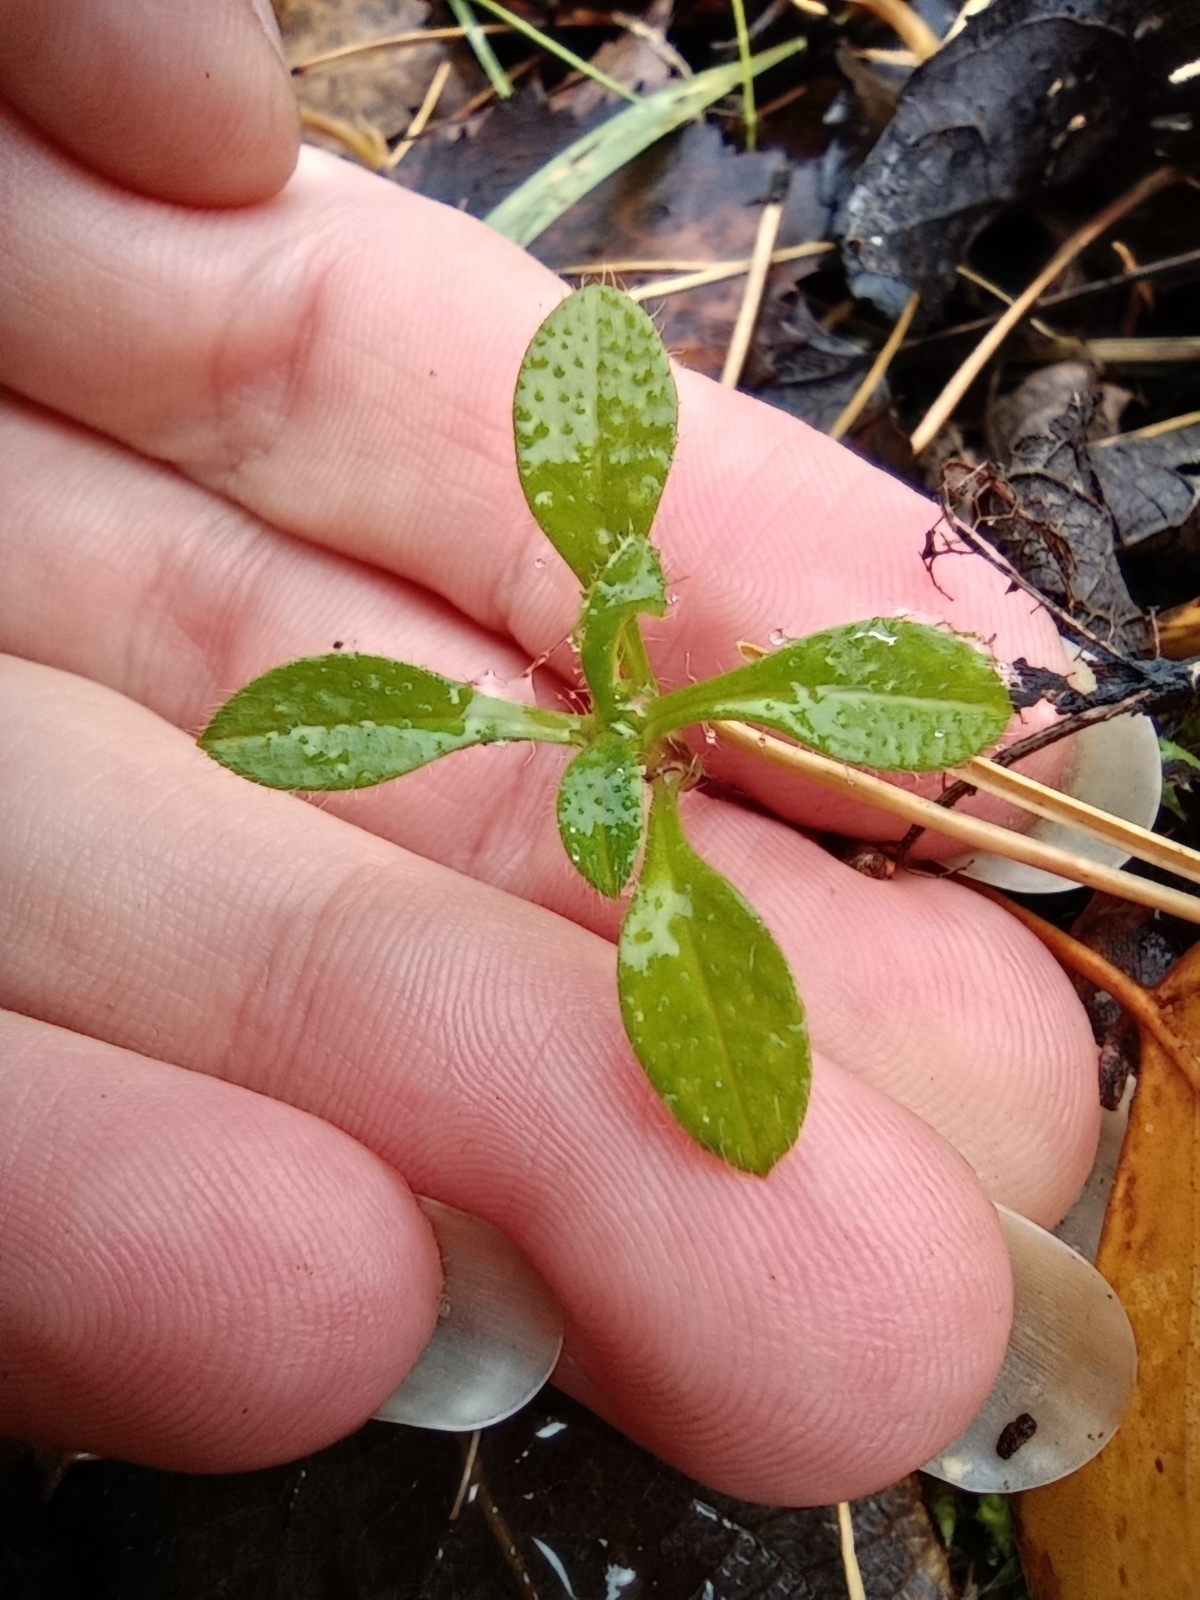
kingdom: Plantae
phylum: Tracheophyta
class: Magnoliopsida
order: Caryophyllales
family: Caryophyllaceae
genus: Cerastium
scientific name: Cerastium holosteoides
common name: Big chickweed
